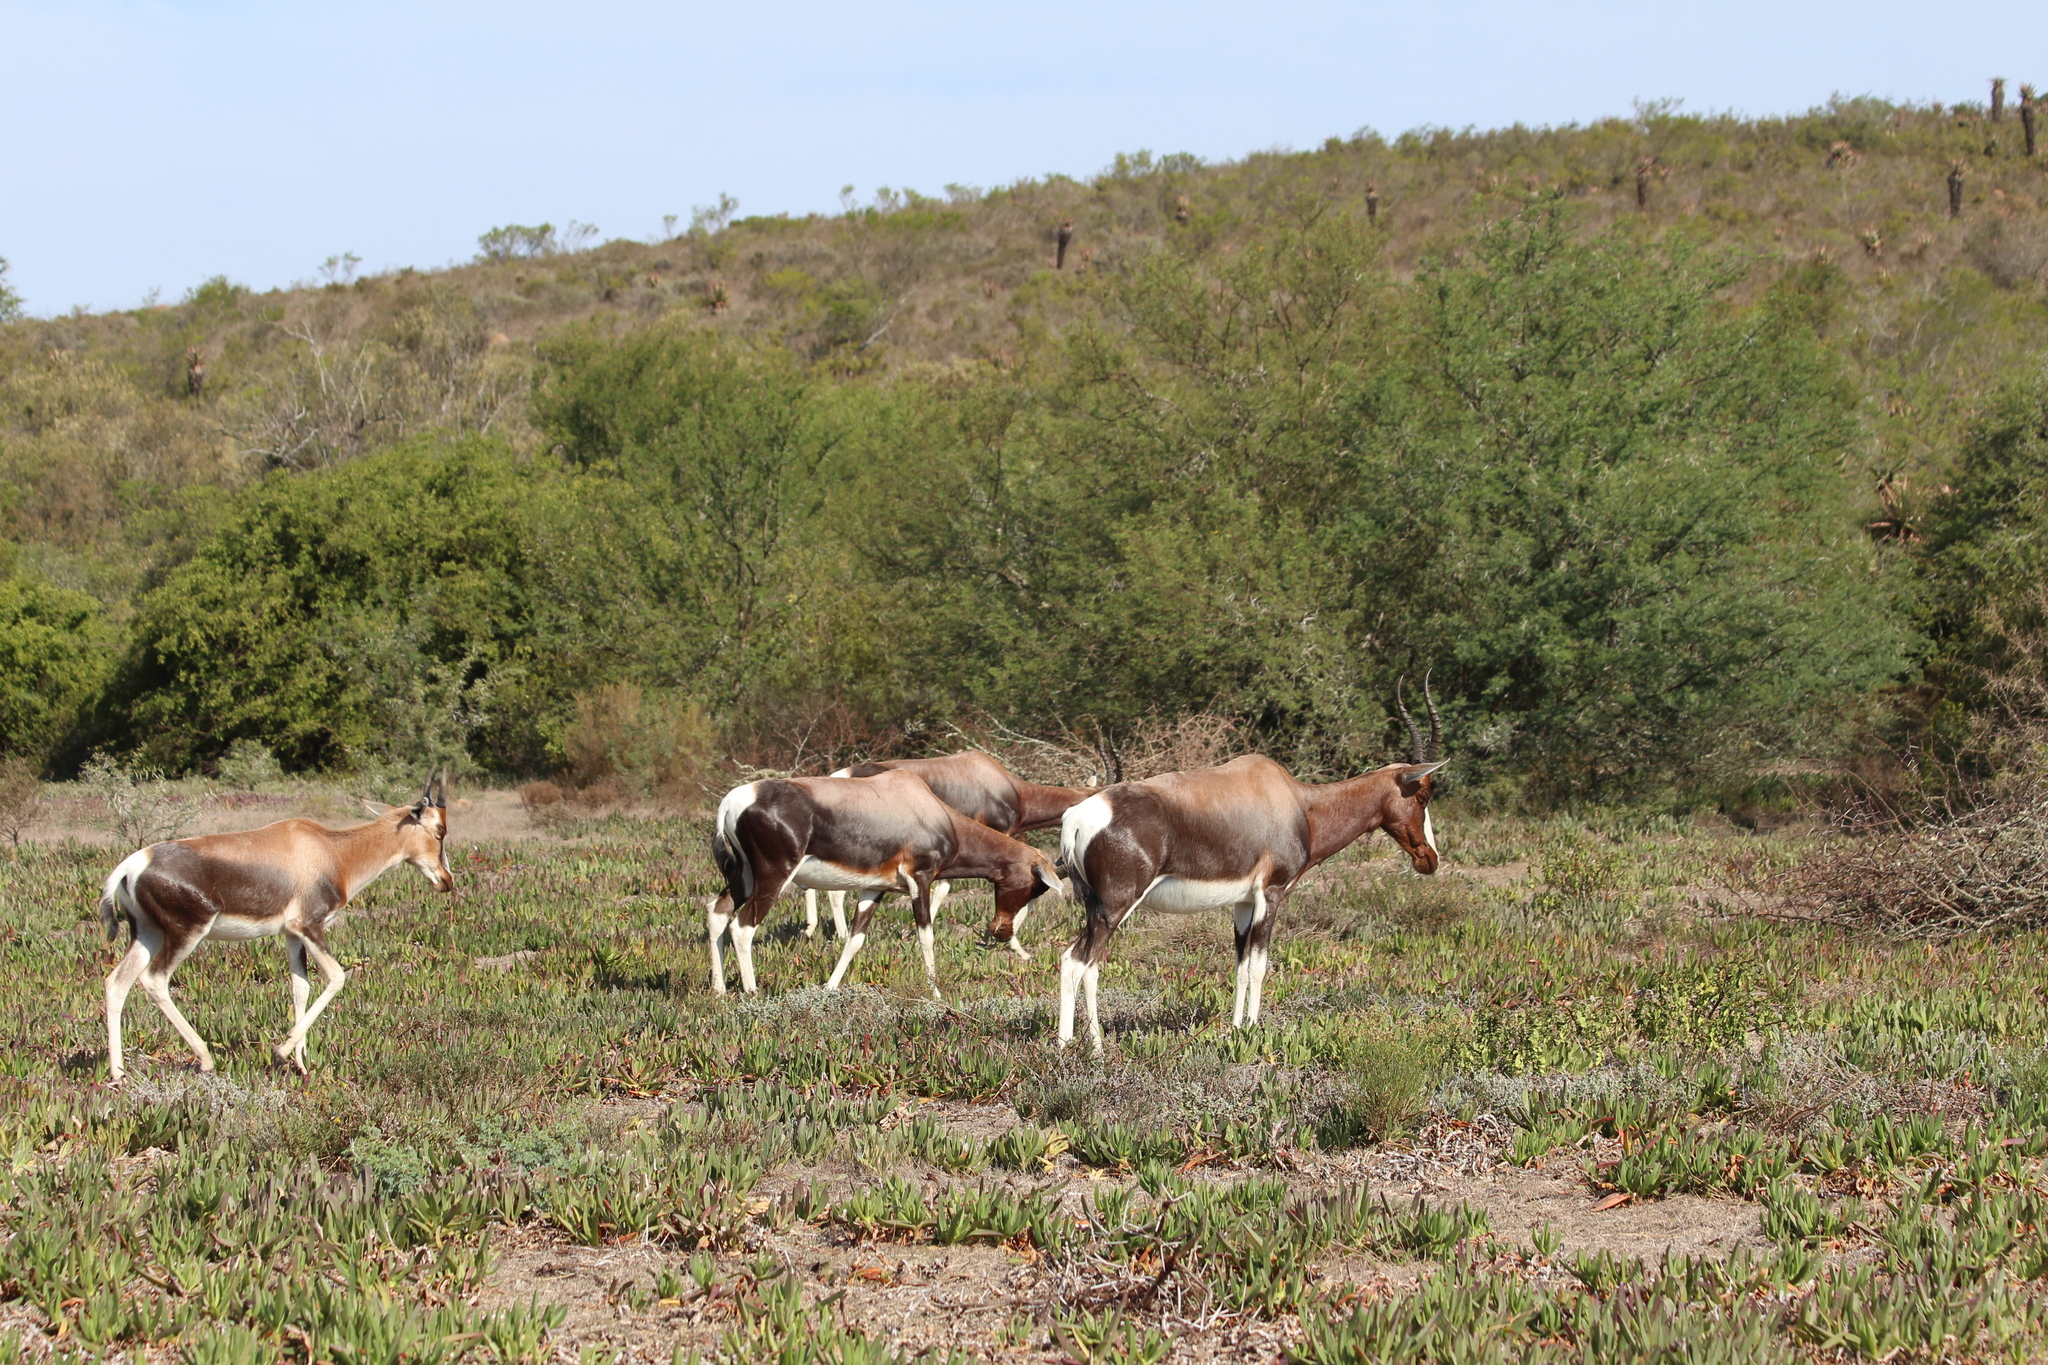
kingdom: Animalia
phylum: Chordata
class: Mammalia
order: Artiodactyla
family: Bovidae
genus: Damaliscus
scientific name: Damaliscus pygargus
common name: Bontebok
